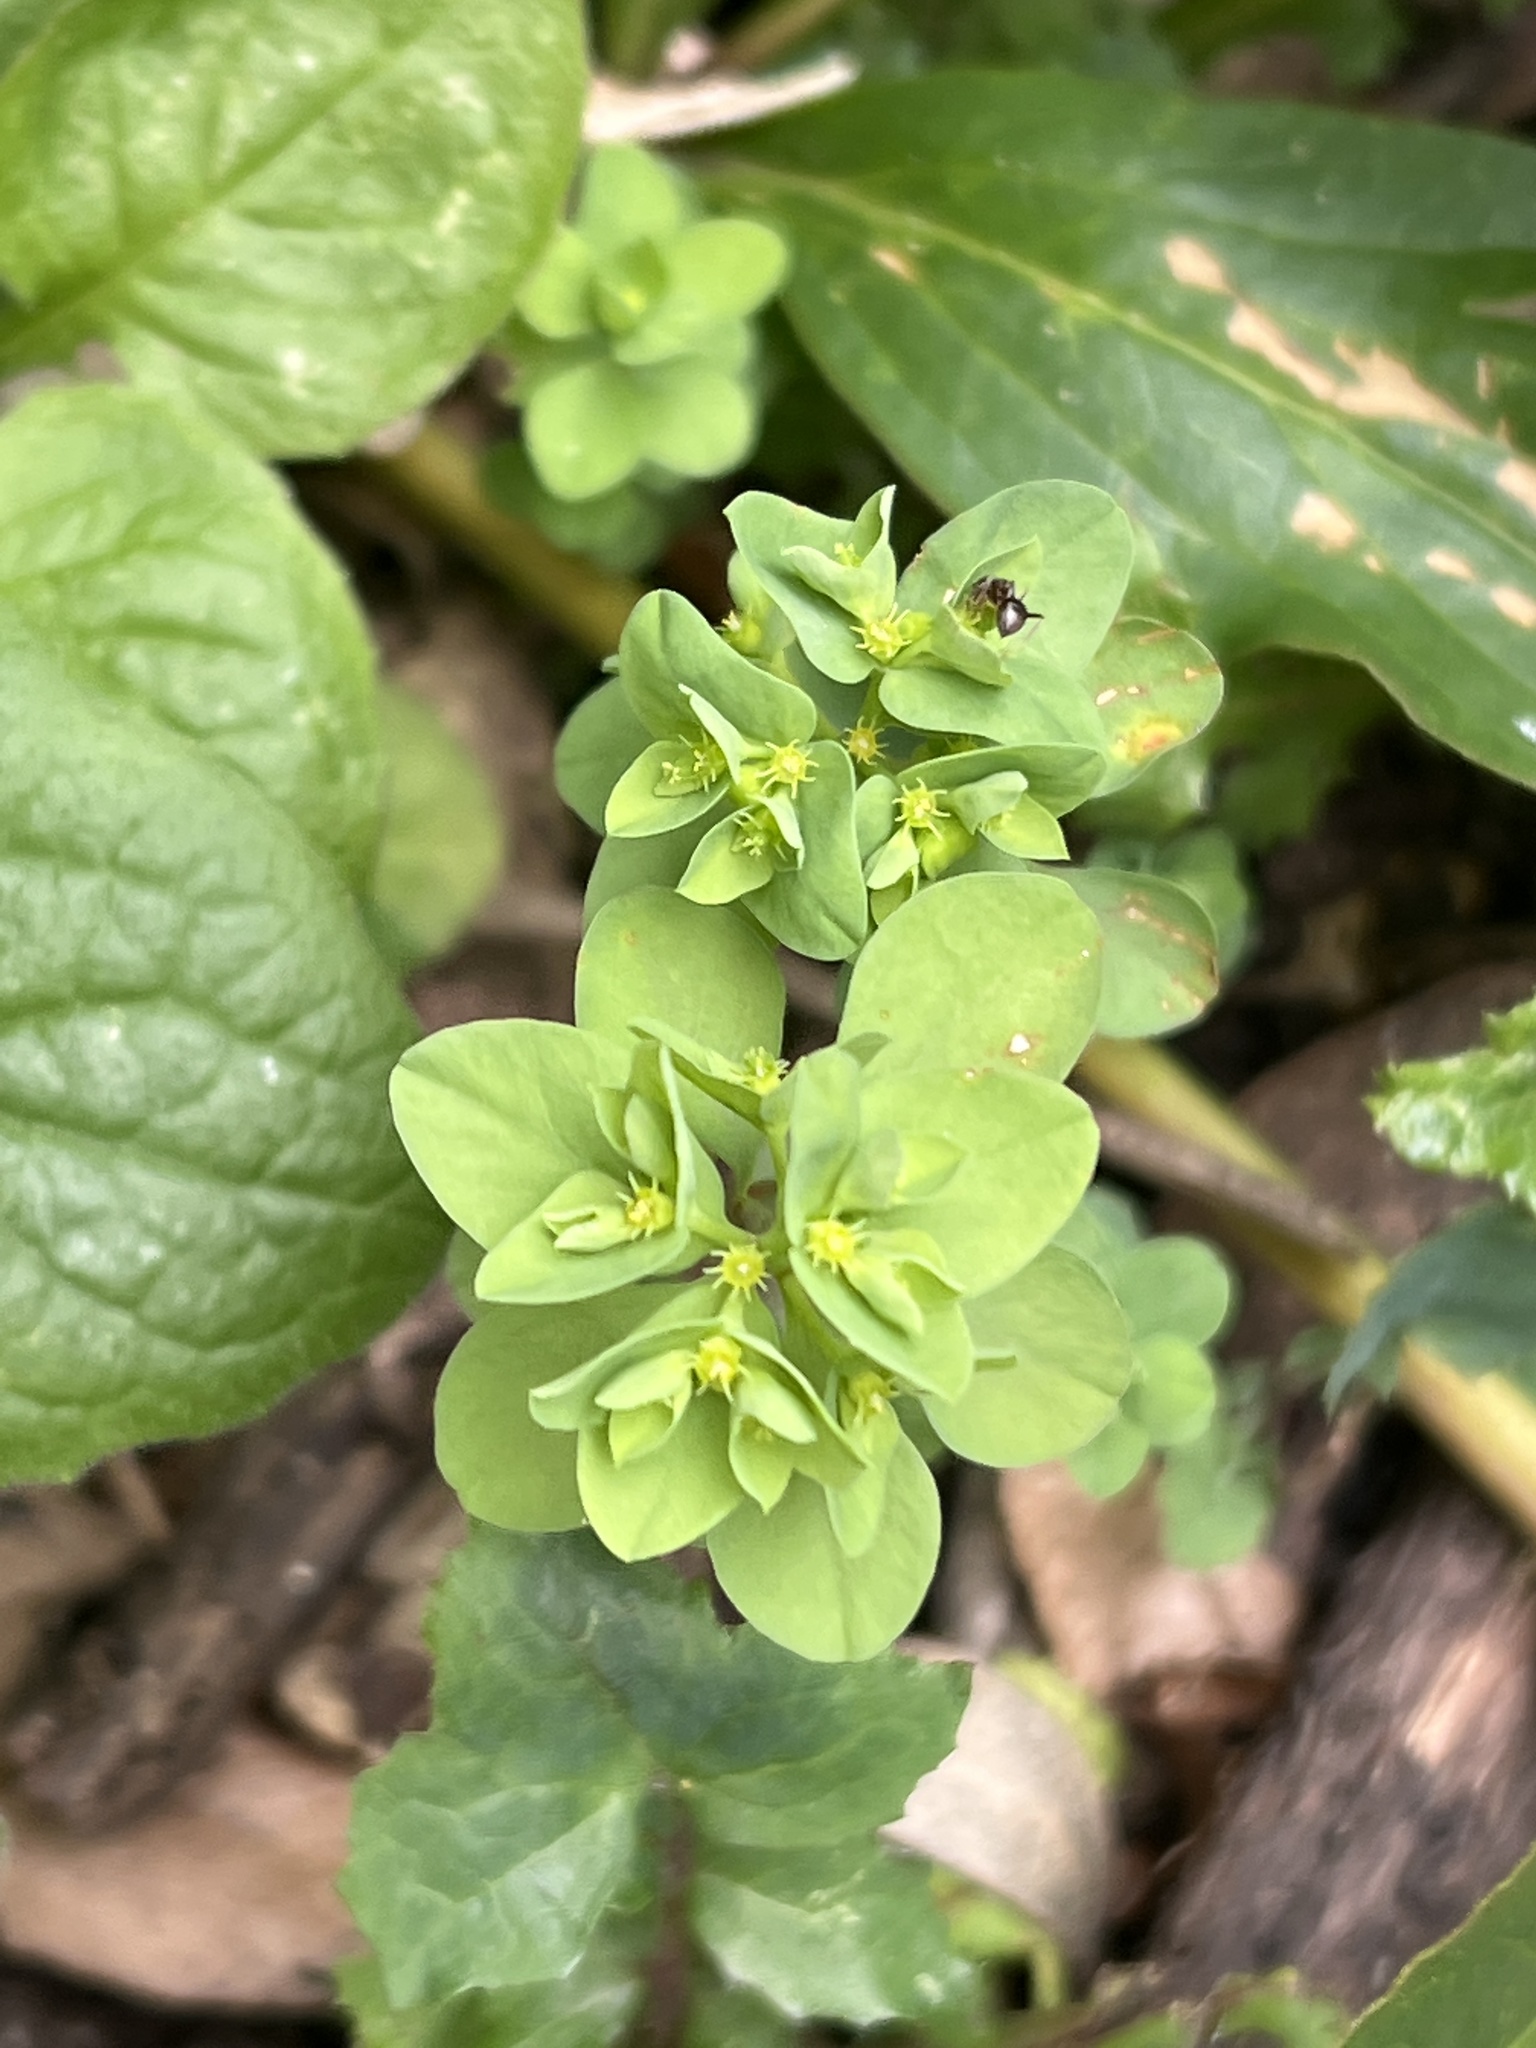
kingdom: Plantae
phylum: Tracheophyta
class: Magnoliopsida
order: Malpighiales
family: Euphorbiaceae
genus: Euphorbia
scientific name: Euphorbia peplus
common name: Petty spurge
